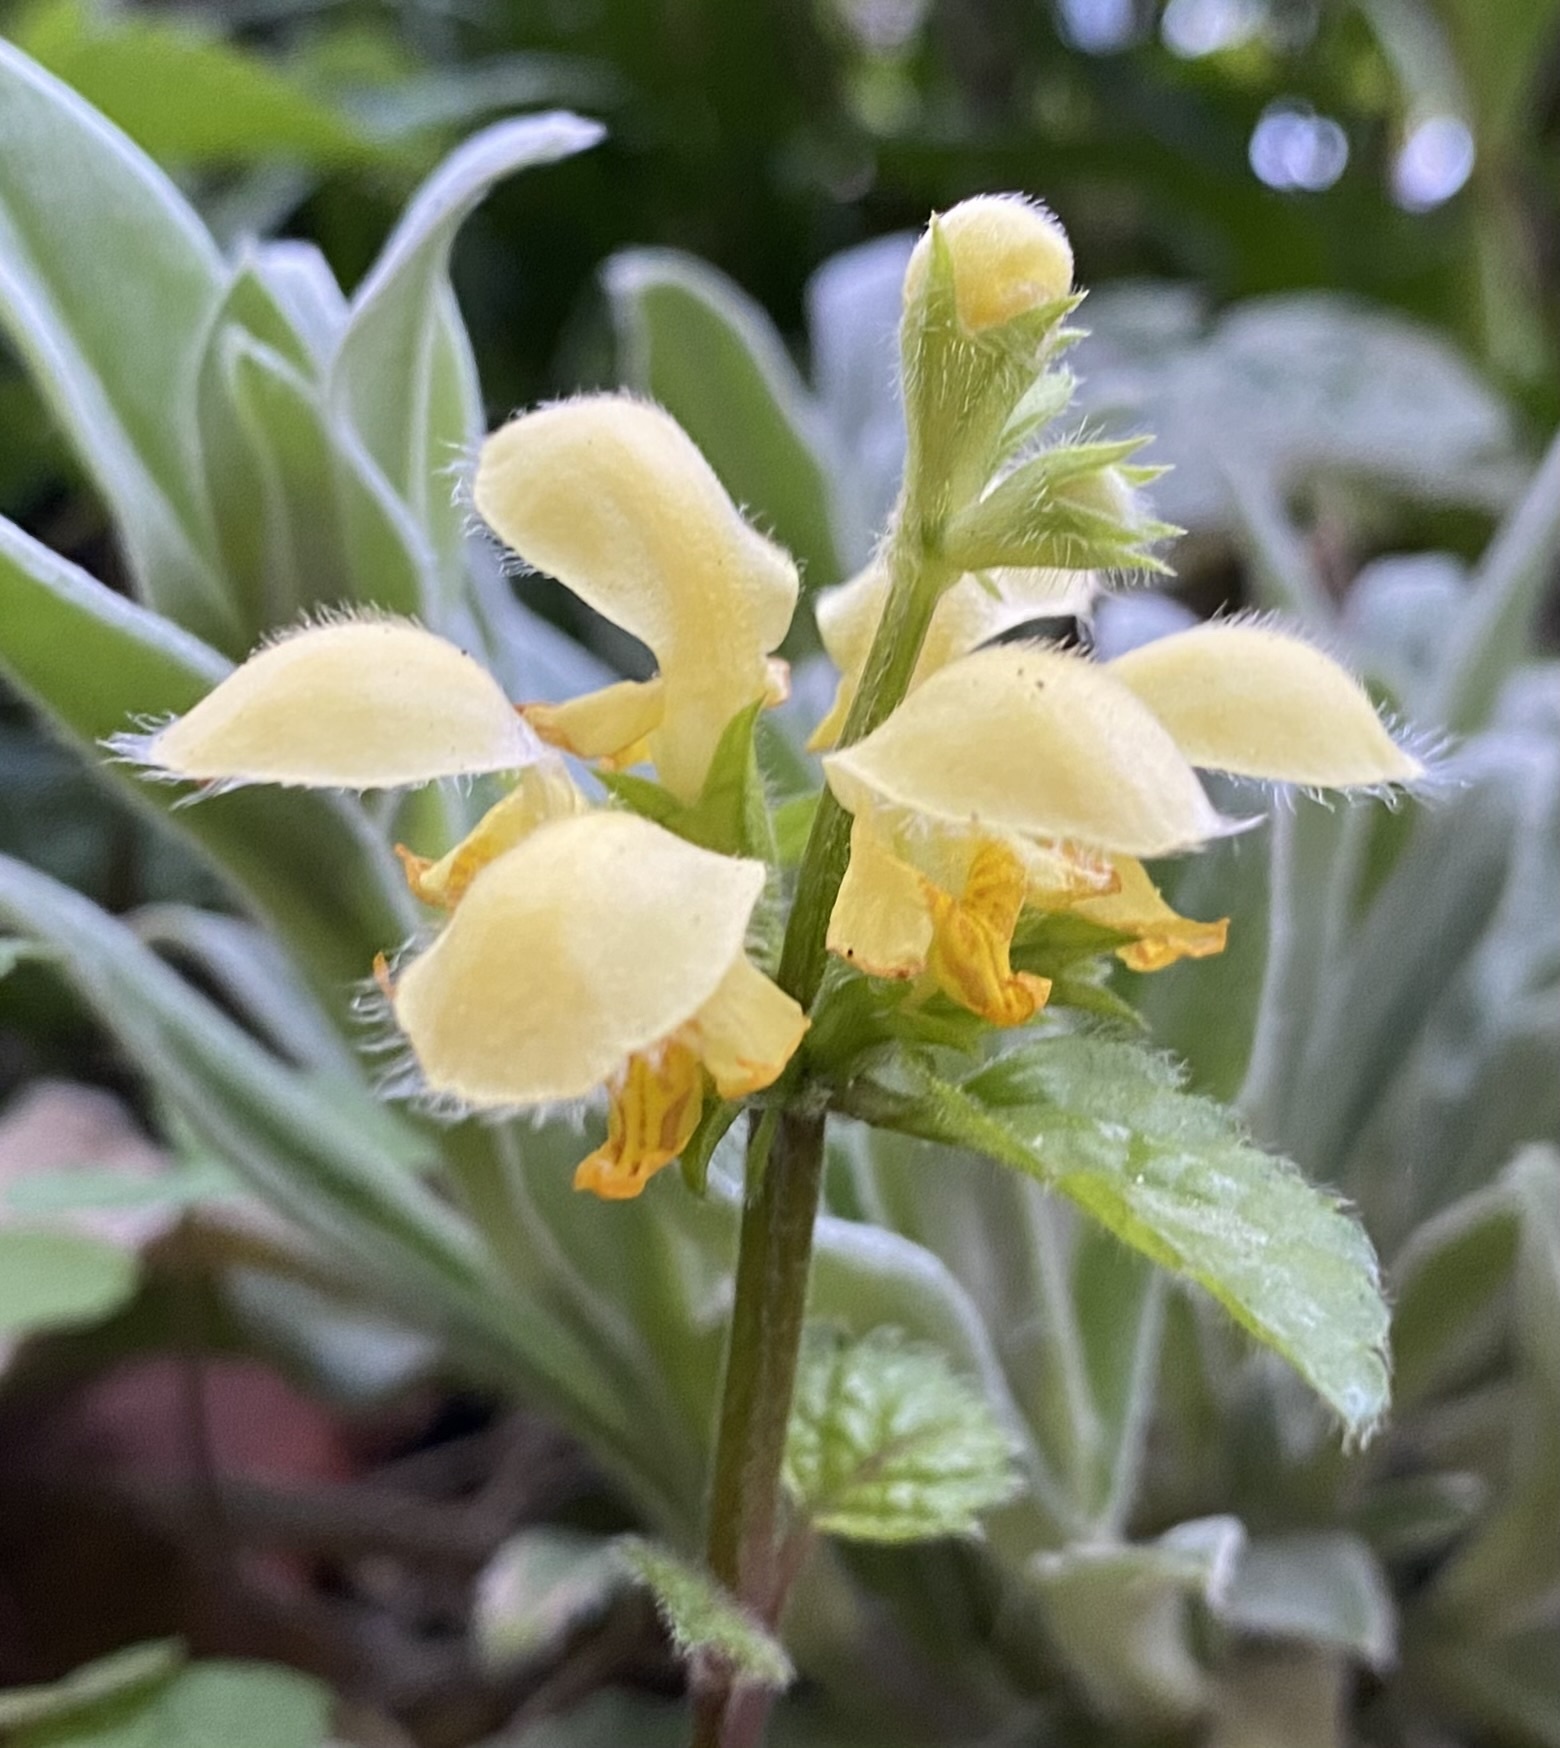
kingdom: Plantae
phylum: Tracheophyta
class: Magnoliopsida
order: Lamiales
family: Lamiaceae
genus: Lamium
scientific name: Lamium galeobdolon
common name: Yellow archangel
